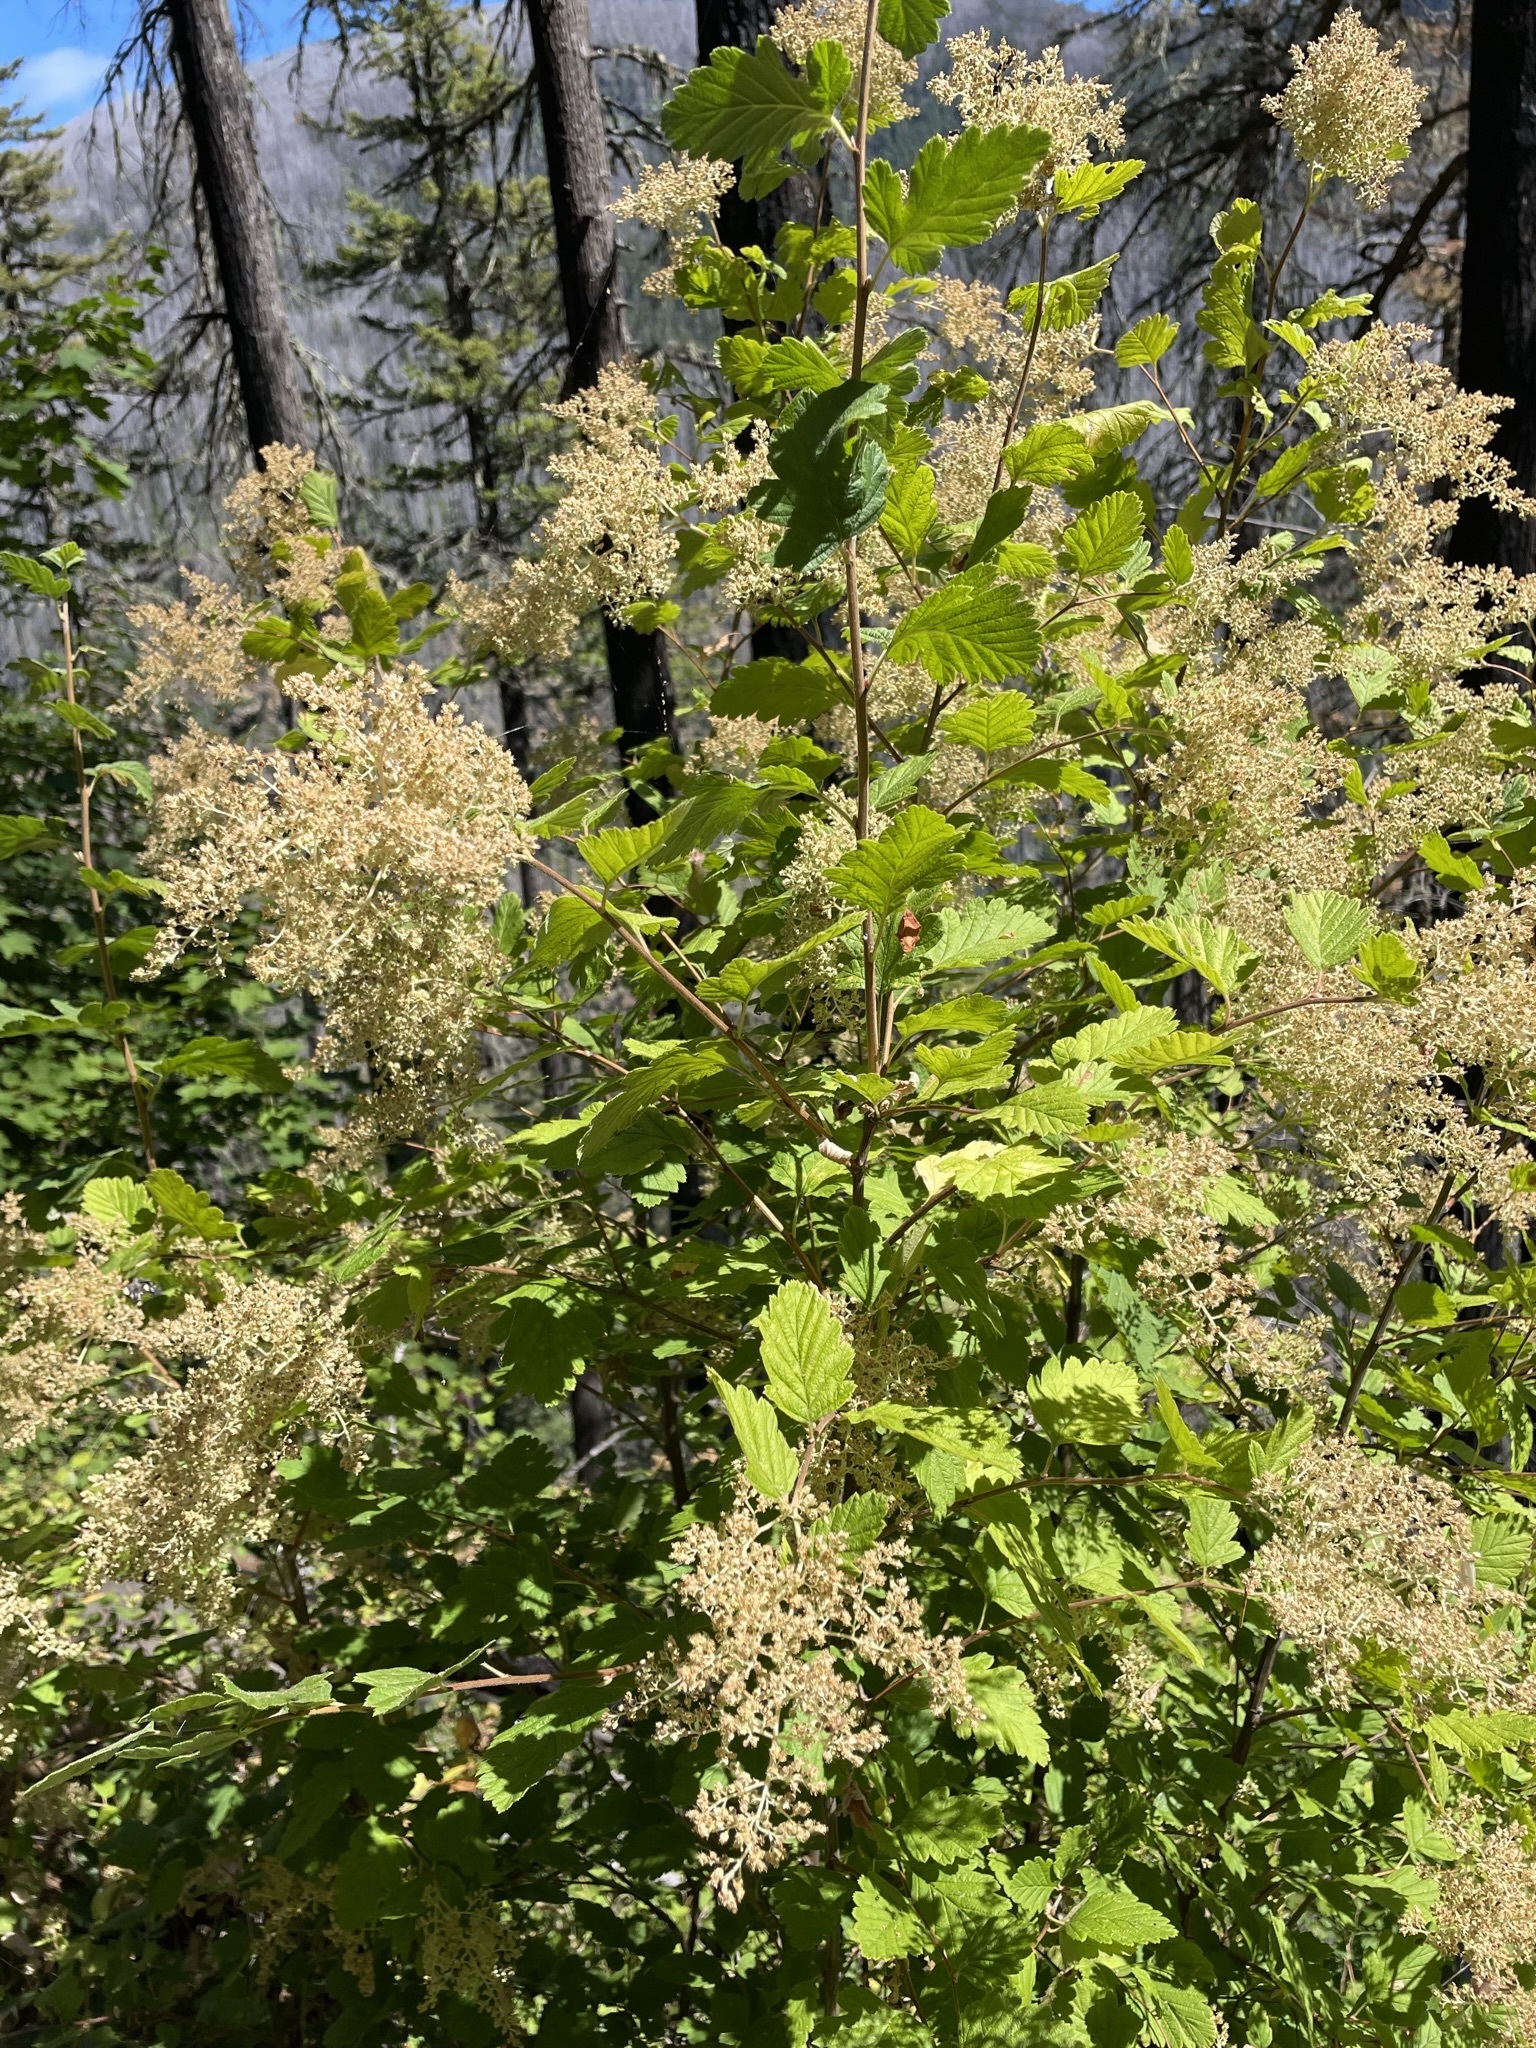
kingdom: Plantae
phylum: Tracheophyta
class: Magnoliopsida
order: Rosales
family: Rosaceae
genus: Holodiscus
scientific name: Holodiscus discolor
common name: Oceanspray
